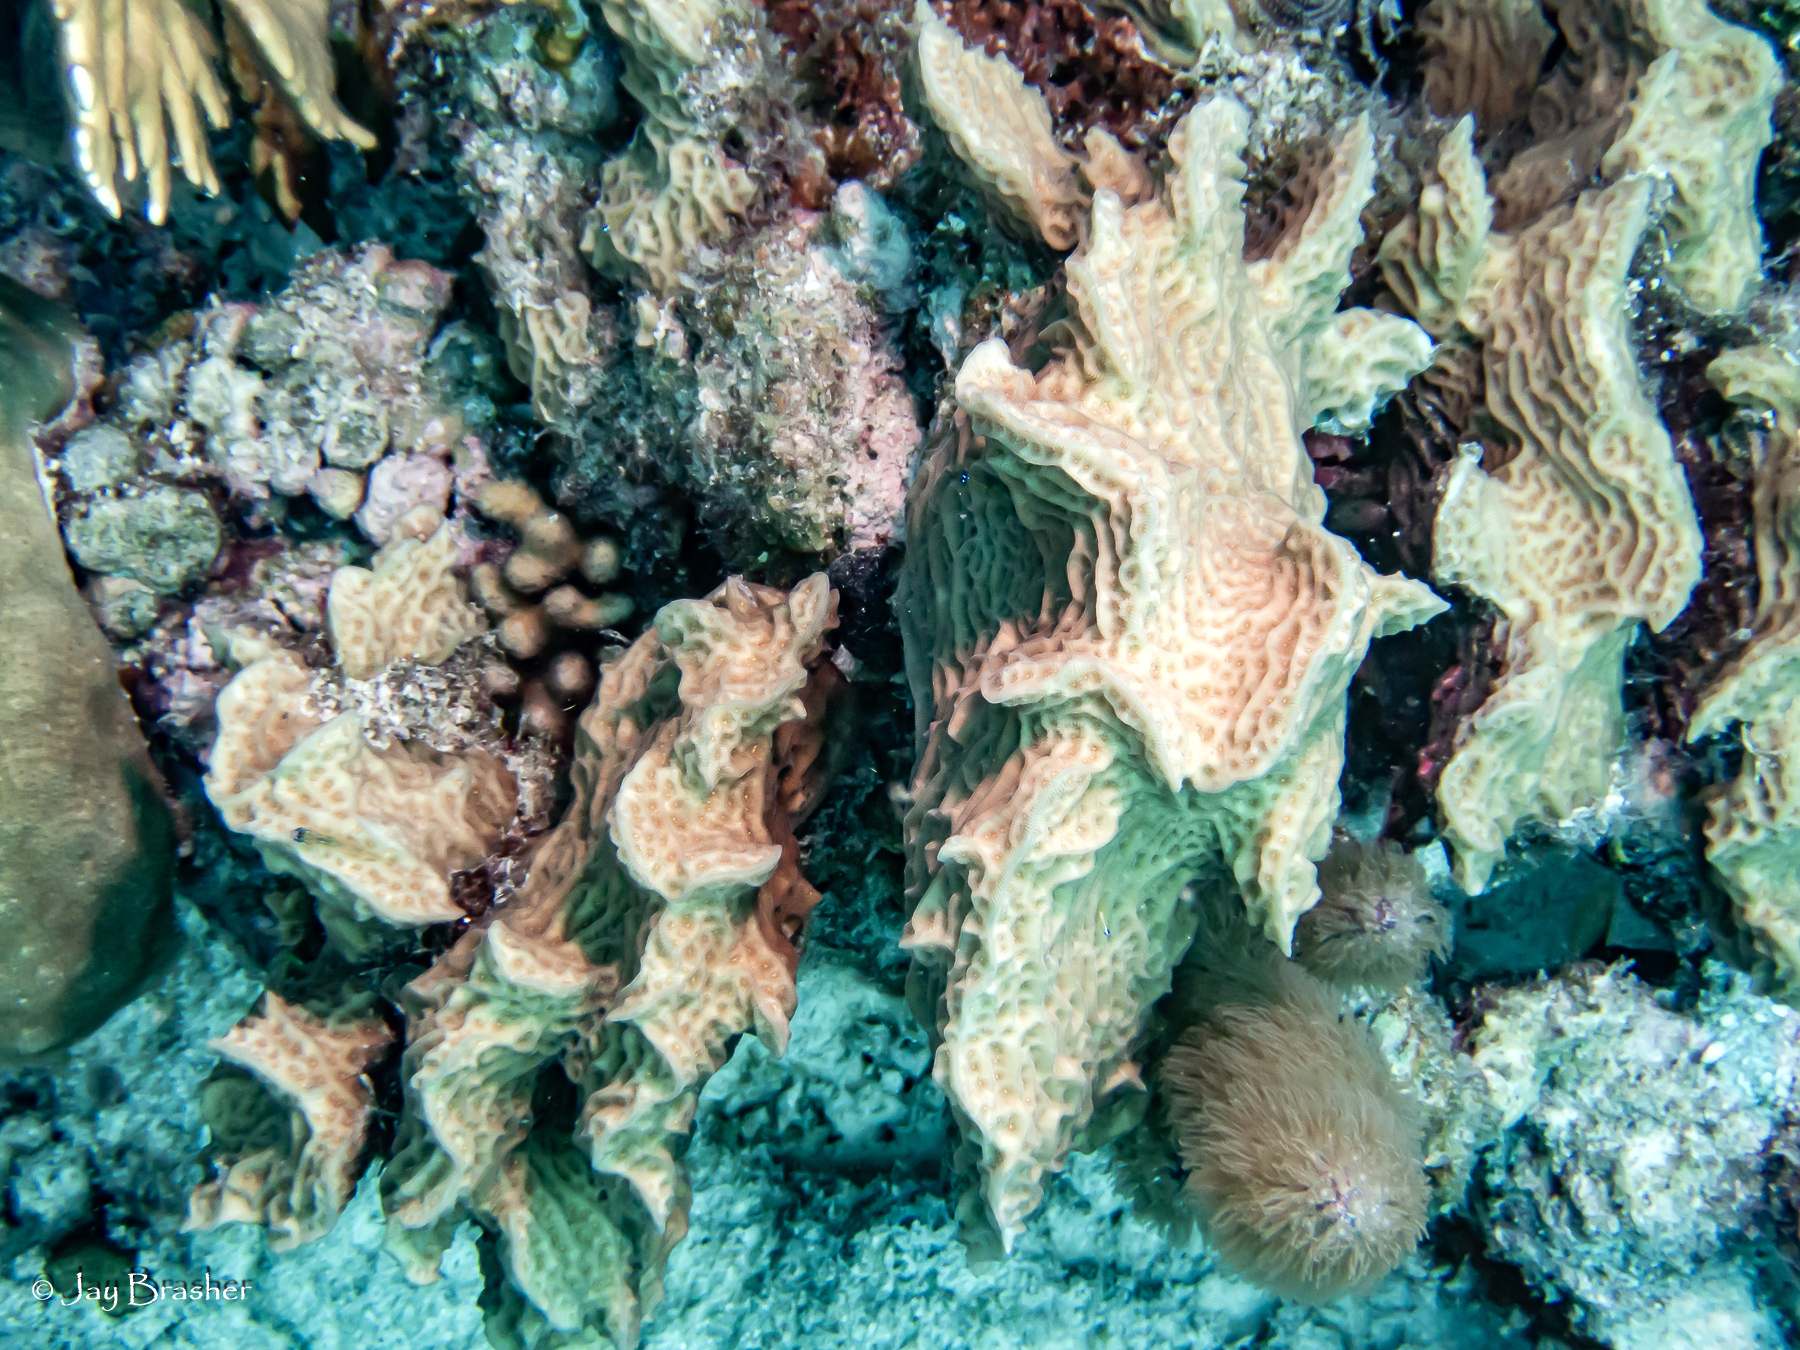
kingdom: Animalia
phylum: Cnidaria
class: Anthozoa
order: Scleractinia
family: Agariciidae
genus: Agaricia
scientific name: Agaricia agaricites
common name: Lettuce coral
